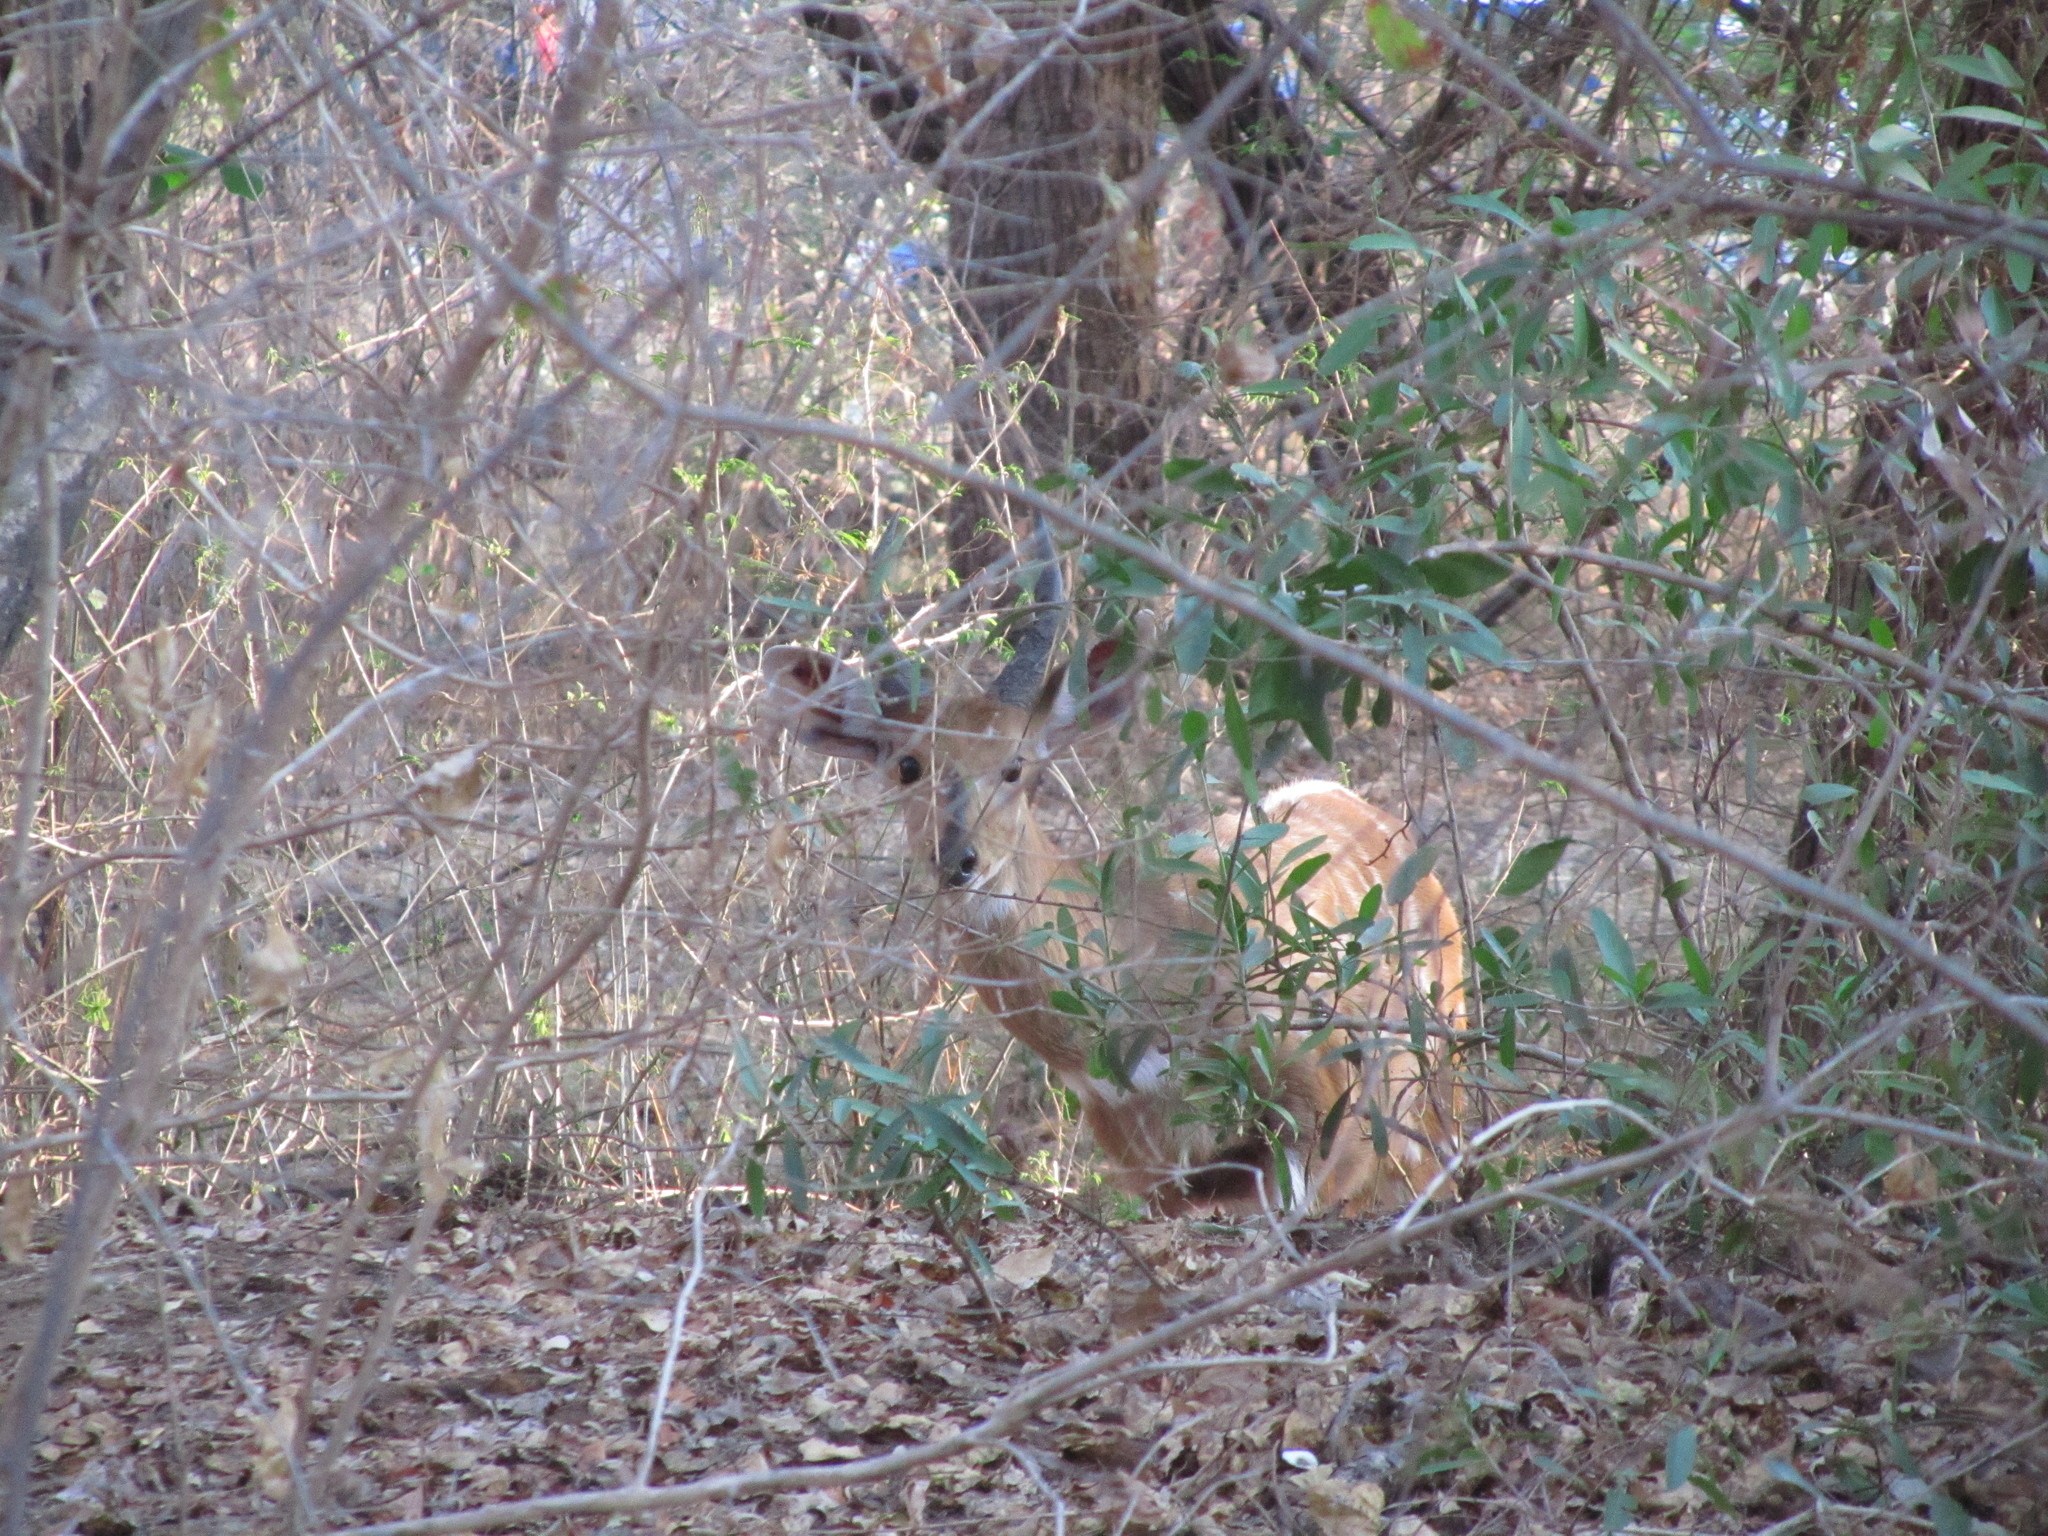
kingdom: Animalia
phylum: Chordata
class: Mammalia
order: Artiodactyla
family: Bovidae
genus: Tragelaphus
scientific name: Tragelaphus scriptus
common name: Bushbuck
